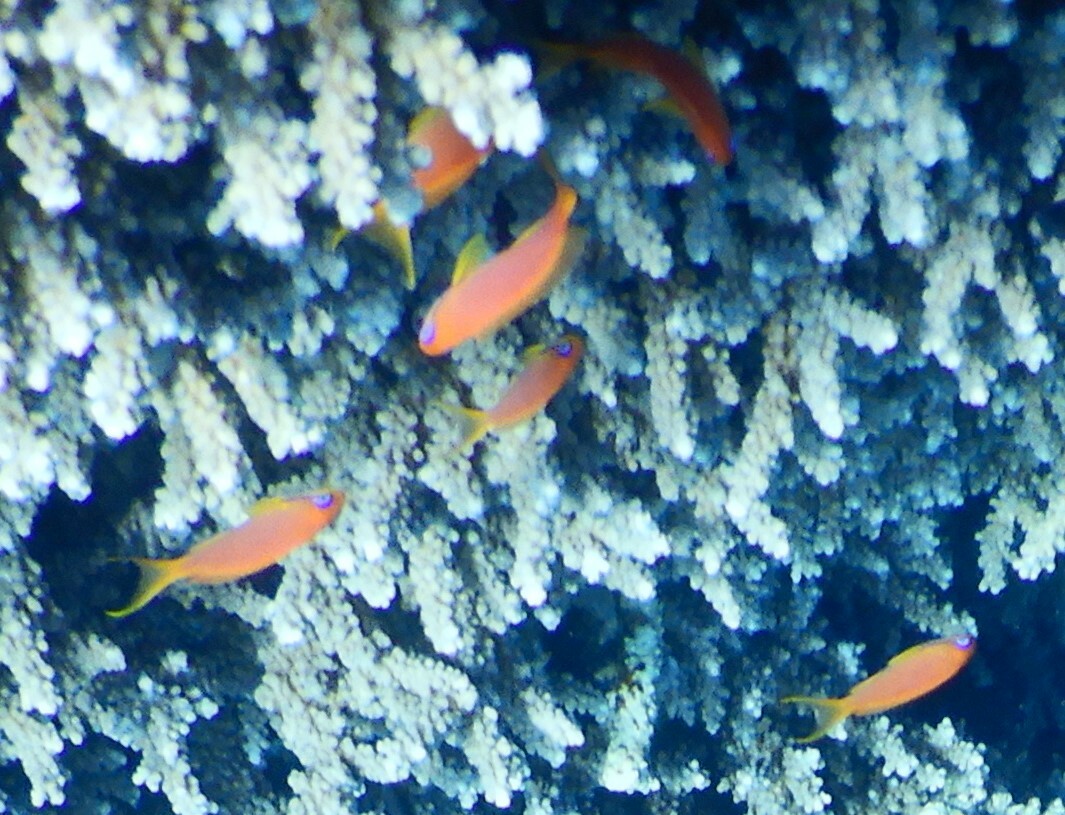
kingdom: Animalia
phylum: Chordata
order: Perciformes
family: Serranidae
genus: Pseudanthias
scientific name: Pseudanthias squamipinnis
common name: Scalefin anthias
